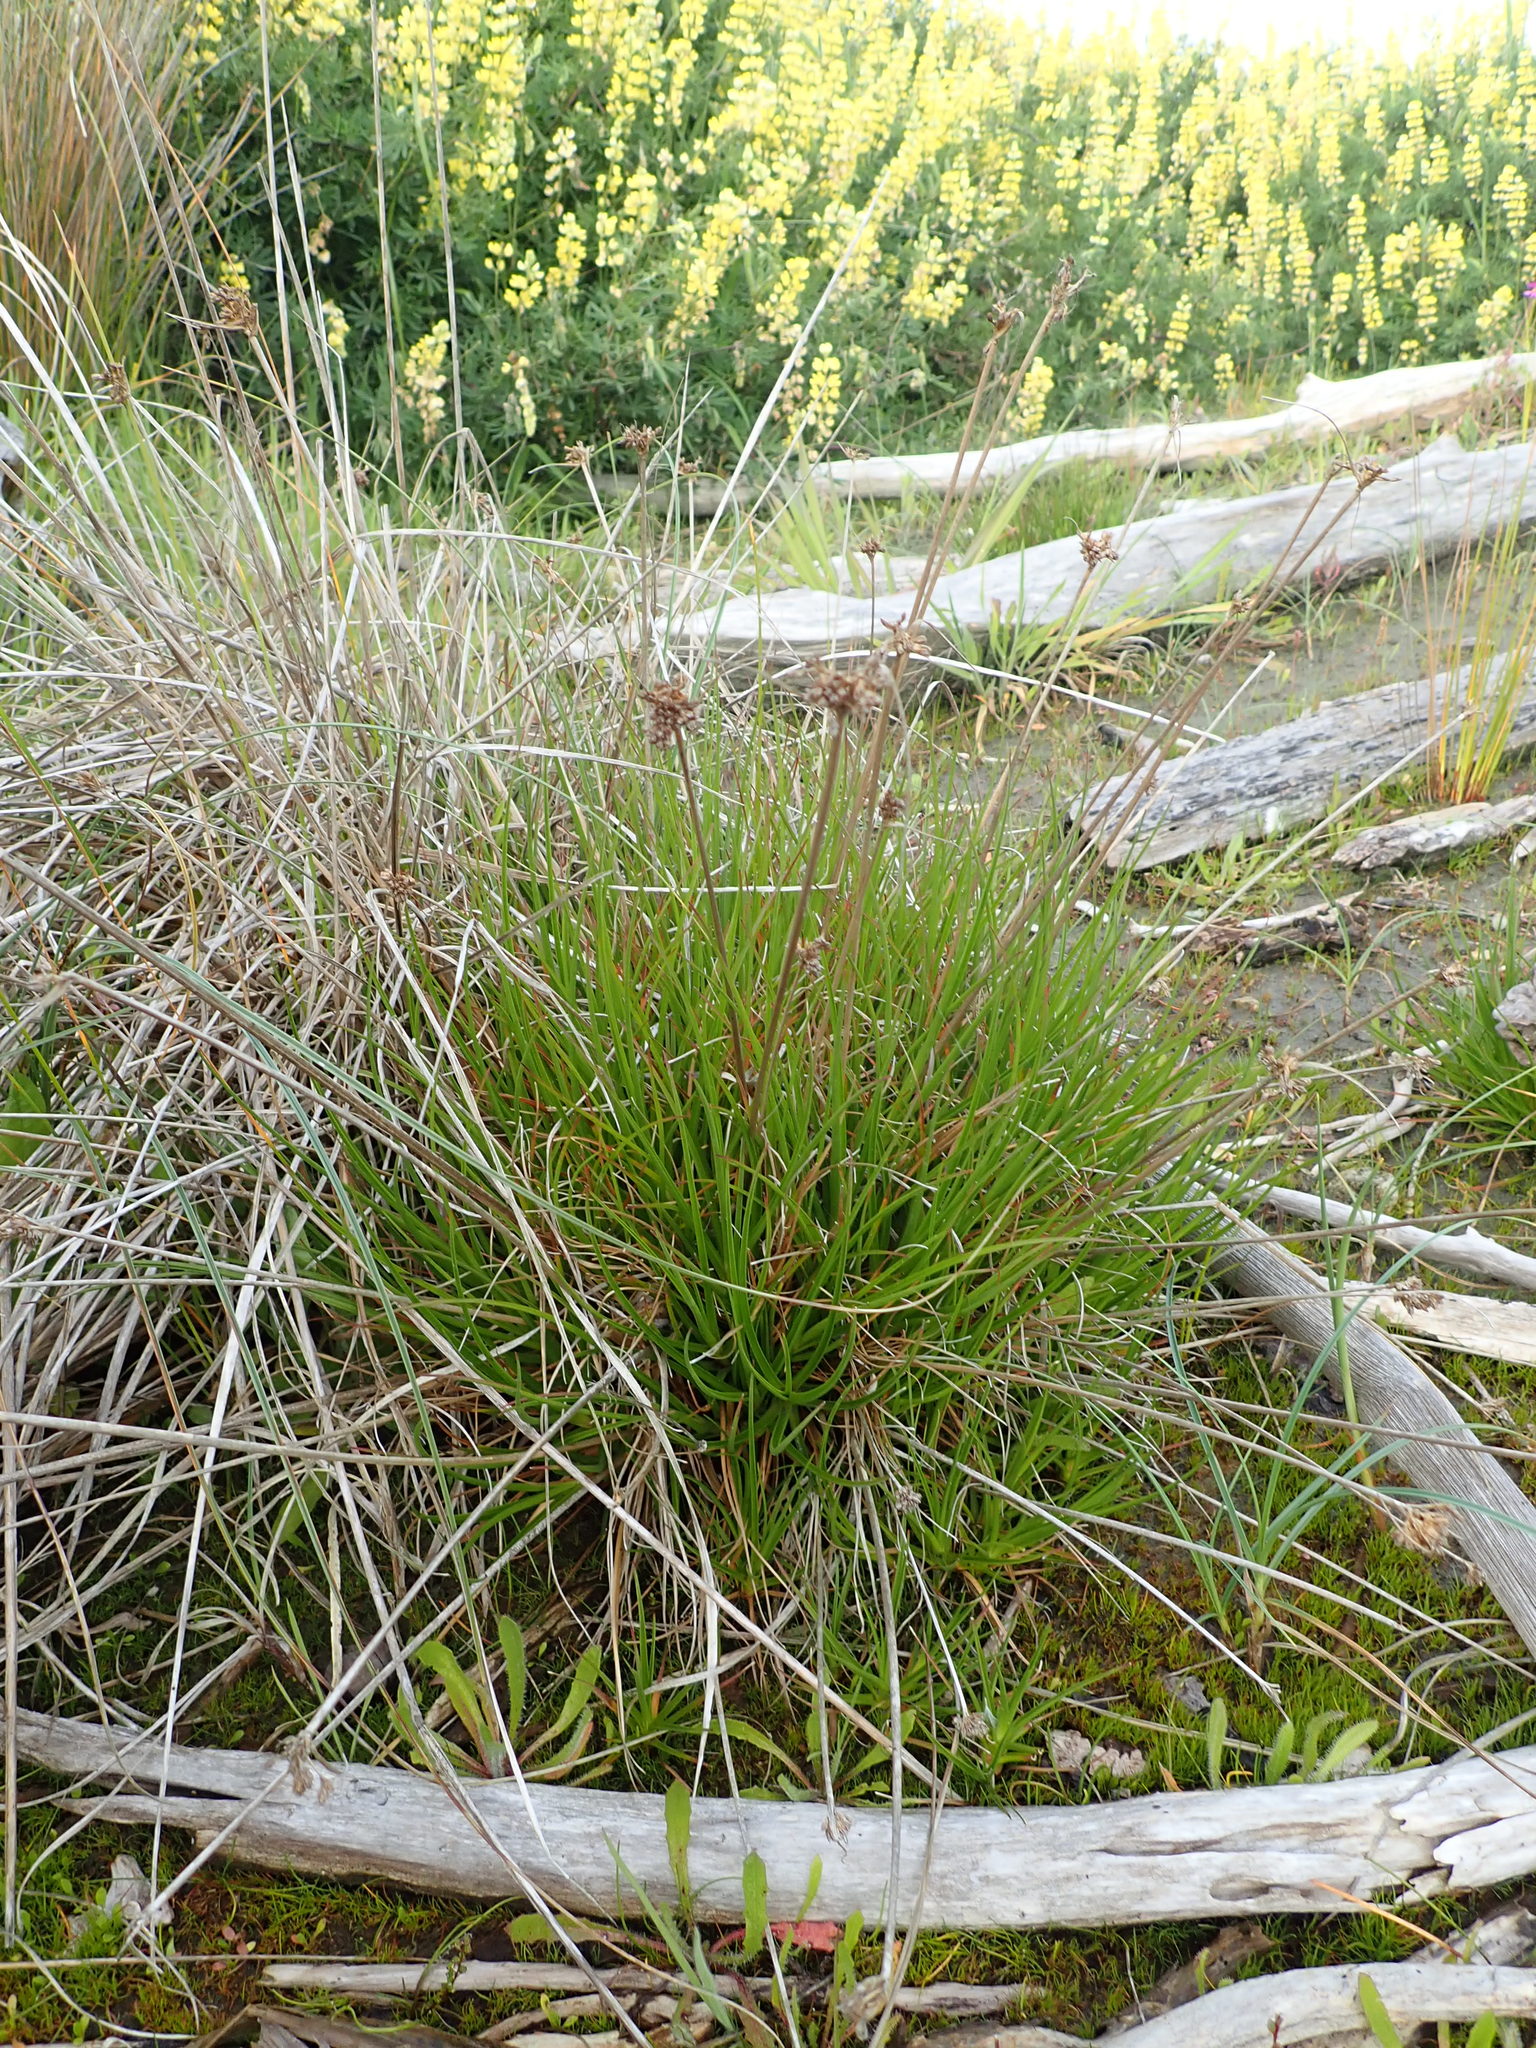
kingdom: Plantae
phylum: Tracheophyta
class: Liliopsida
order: Poales
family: Juncaceae
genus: Juncus
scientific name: Juncus caespiticius
